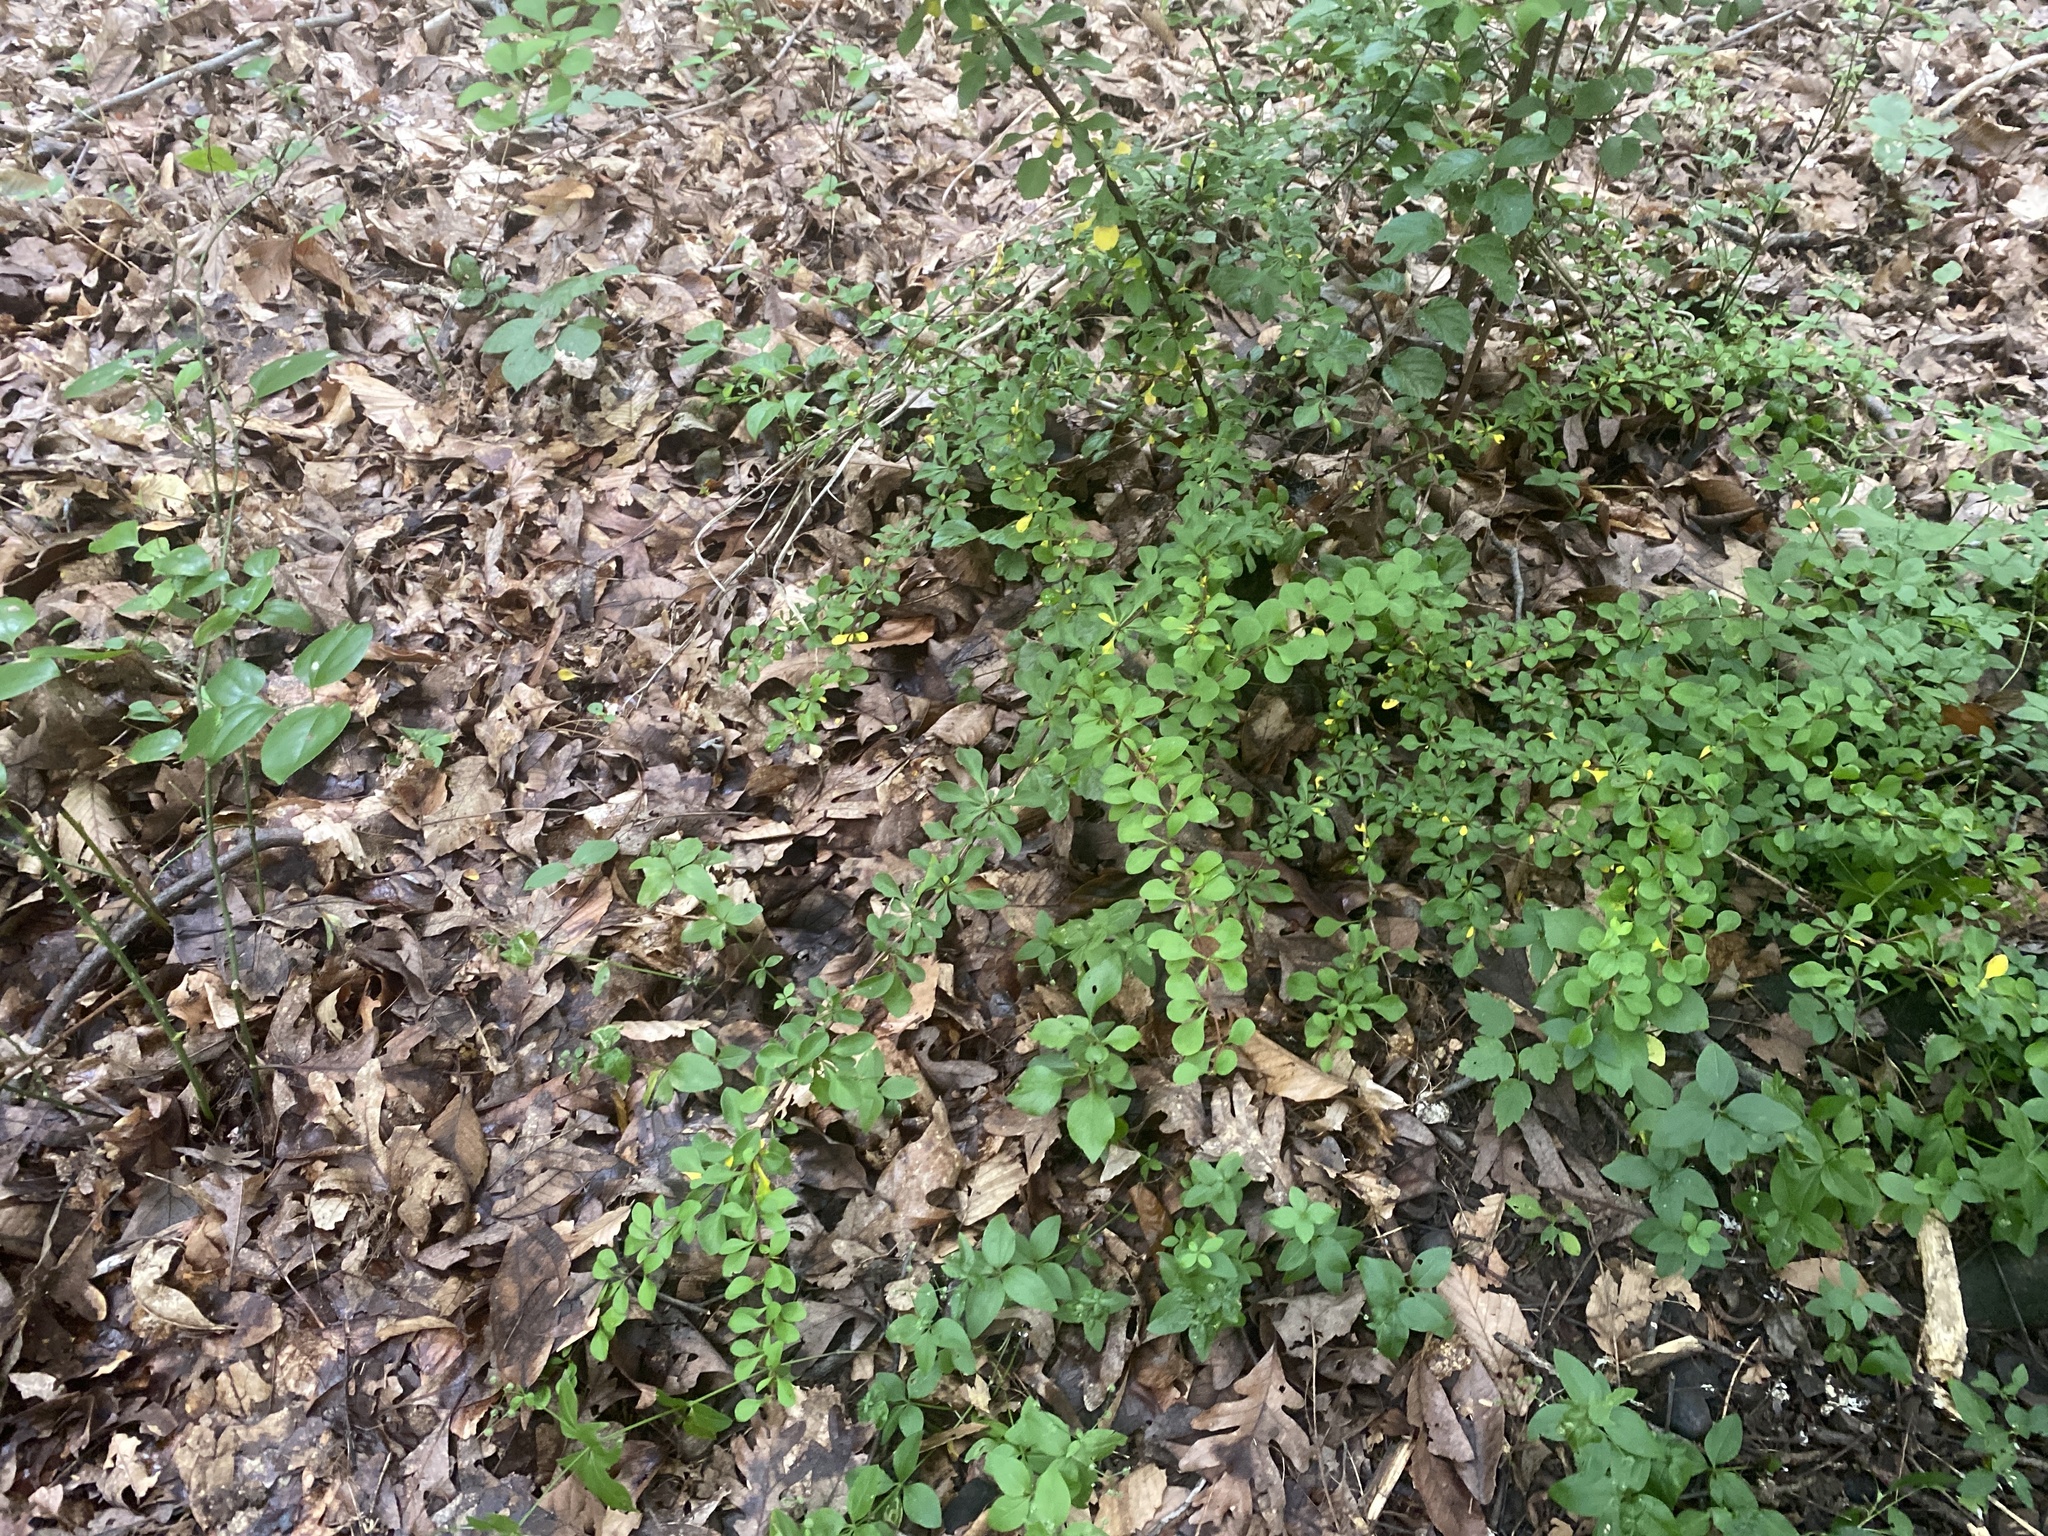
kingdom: Plantae
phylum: Tracheophyta
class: Magnoliopsida
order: Ranunculales
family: Berberidaceae
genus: Berberis
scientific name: Berberis thunbergii
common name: Japanese barberry
